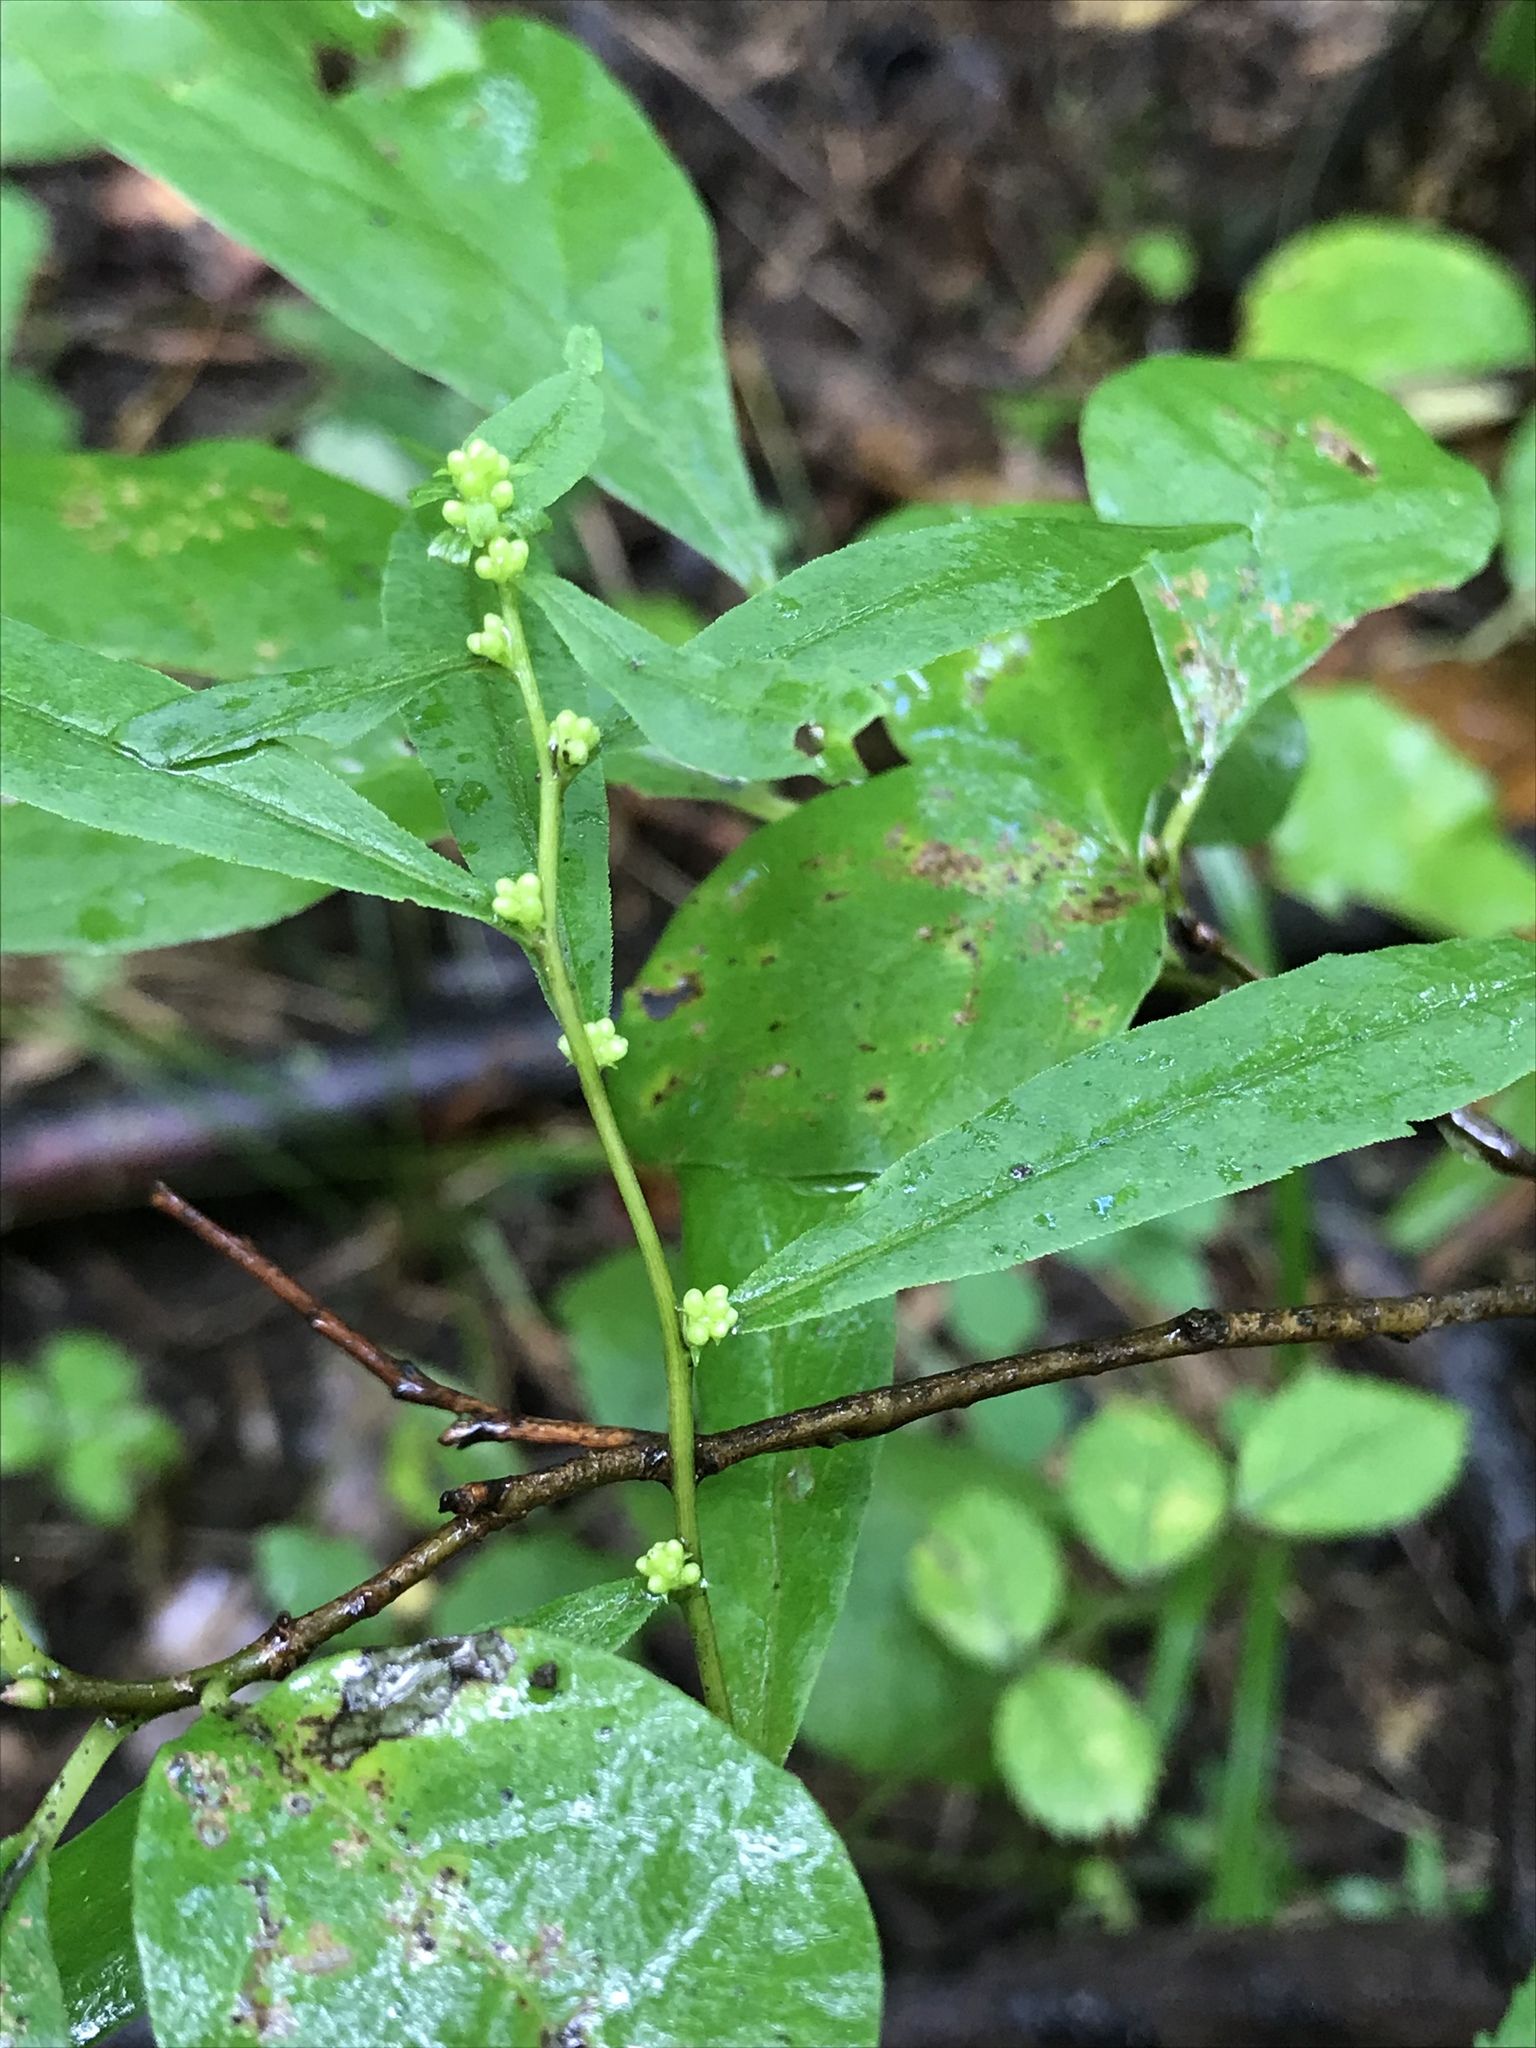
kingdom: Plantae
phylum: Tracheophyta
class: Magnoliopsida
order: Asterales
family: Asteraceae
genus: Solidago
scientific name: Solidago caesia
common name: Woodland goldenrod
